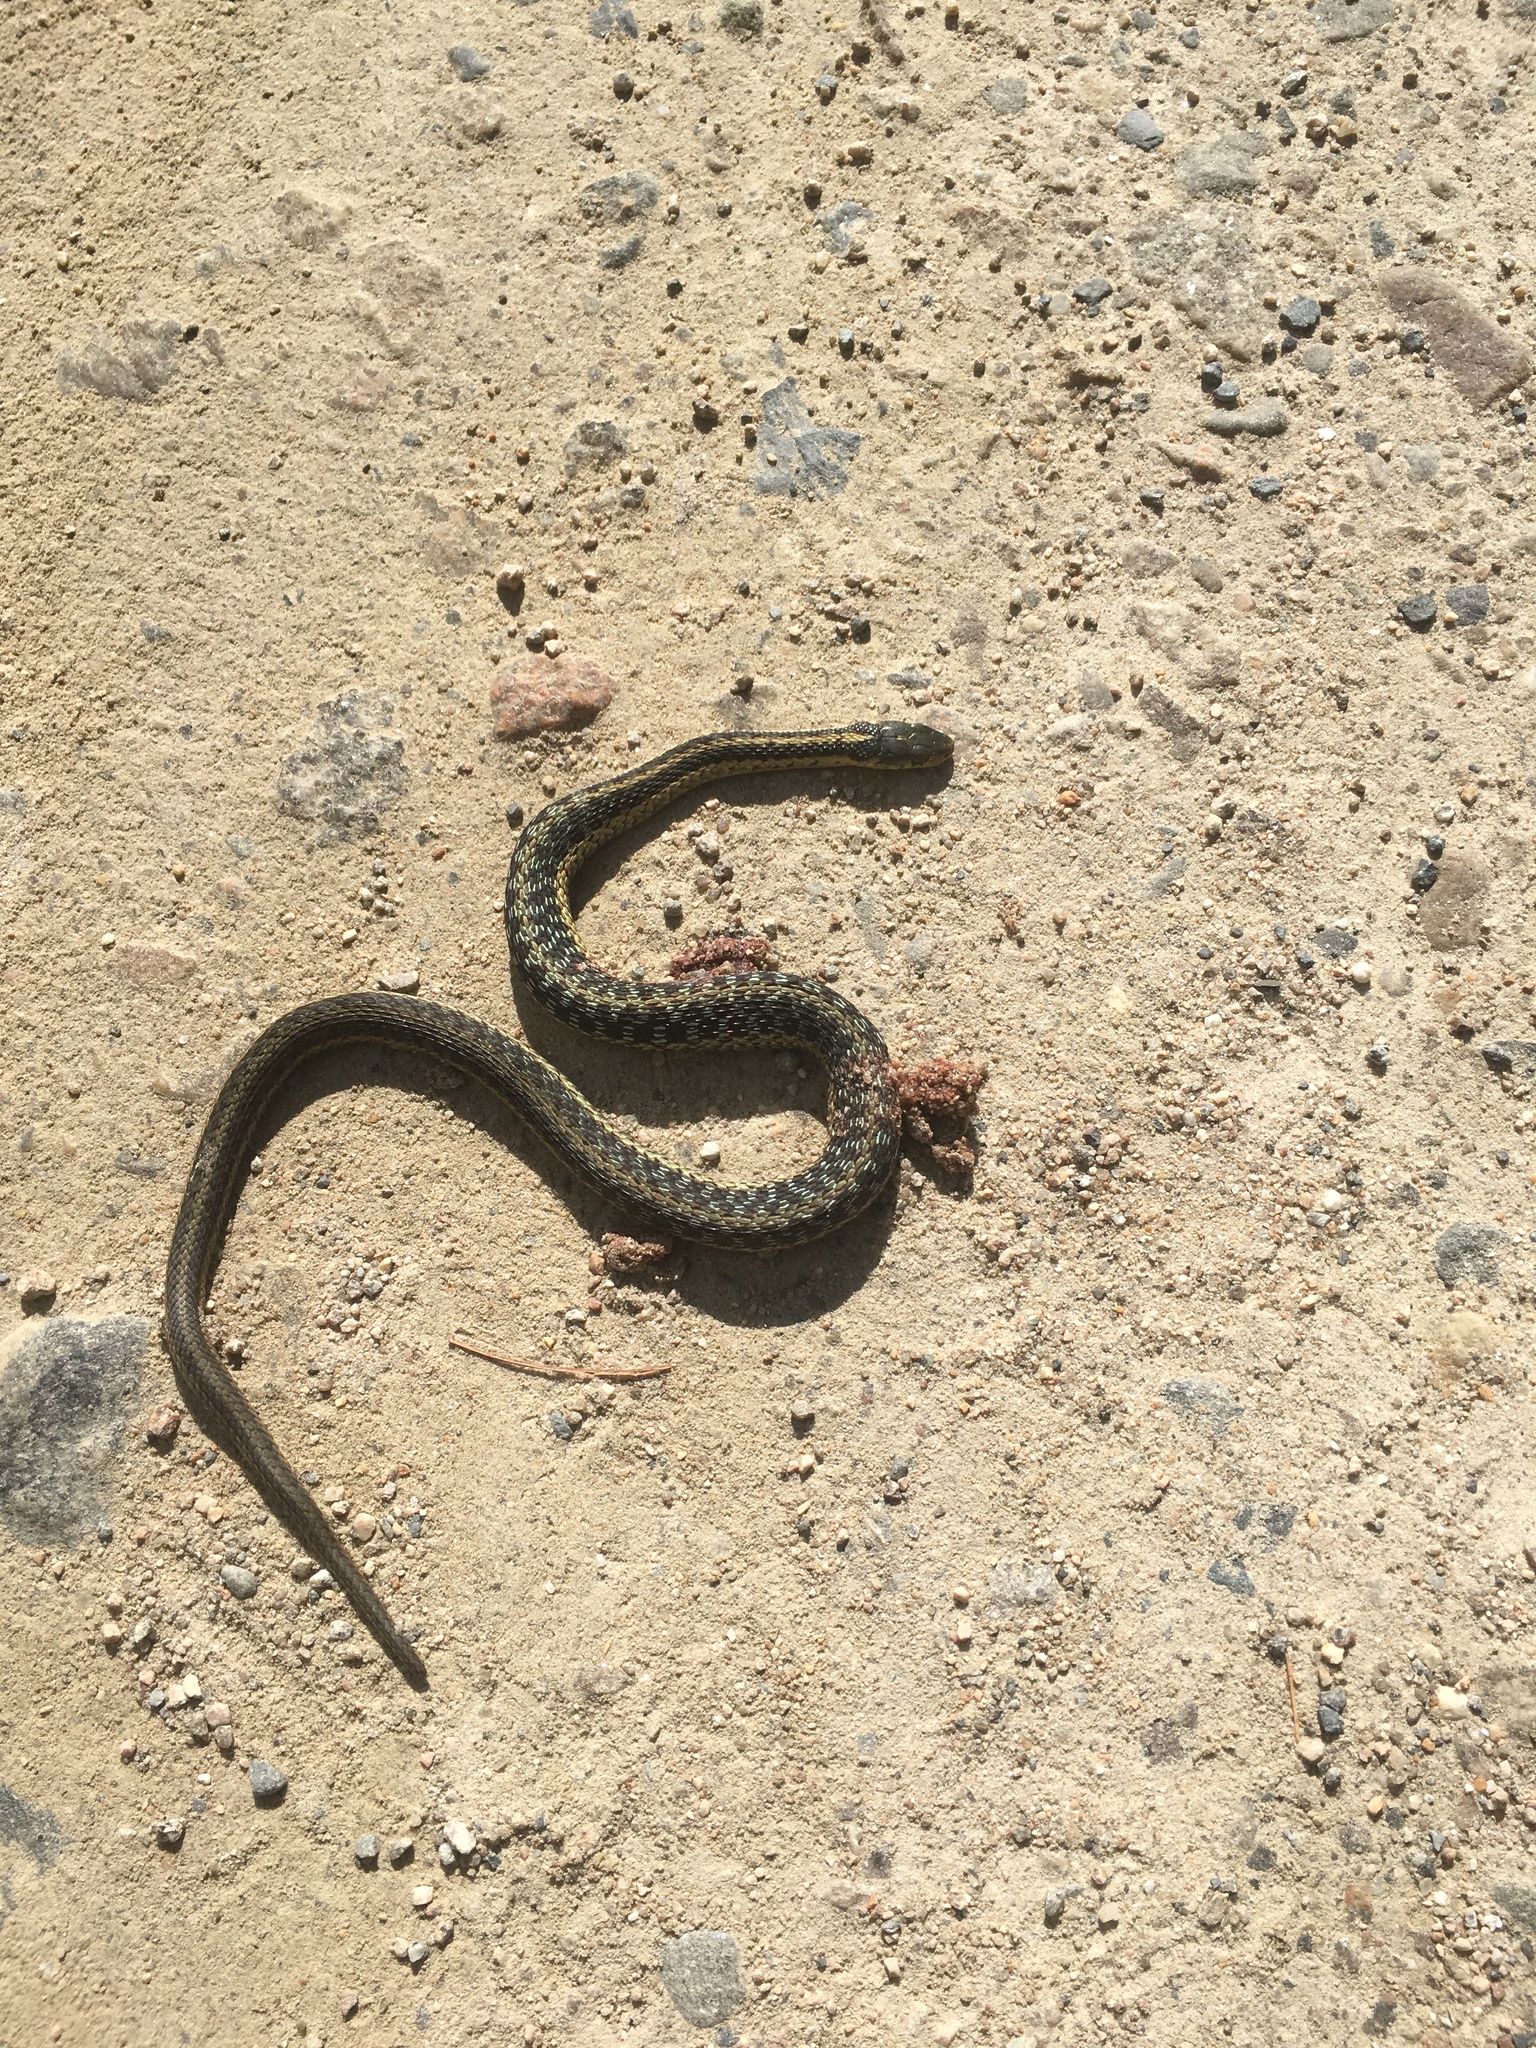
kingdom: Animalia
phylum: Chordata
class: Squamata
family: Colubridae
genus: Thamnophis
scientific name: Thamnophis sirtalis
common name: Common garter snake
